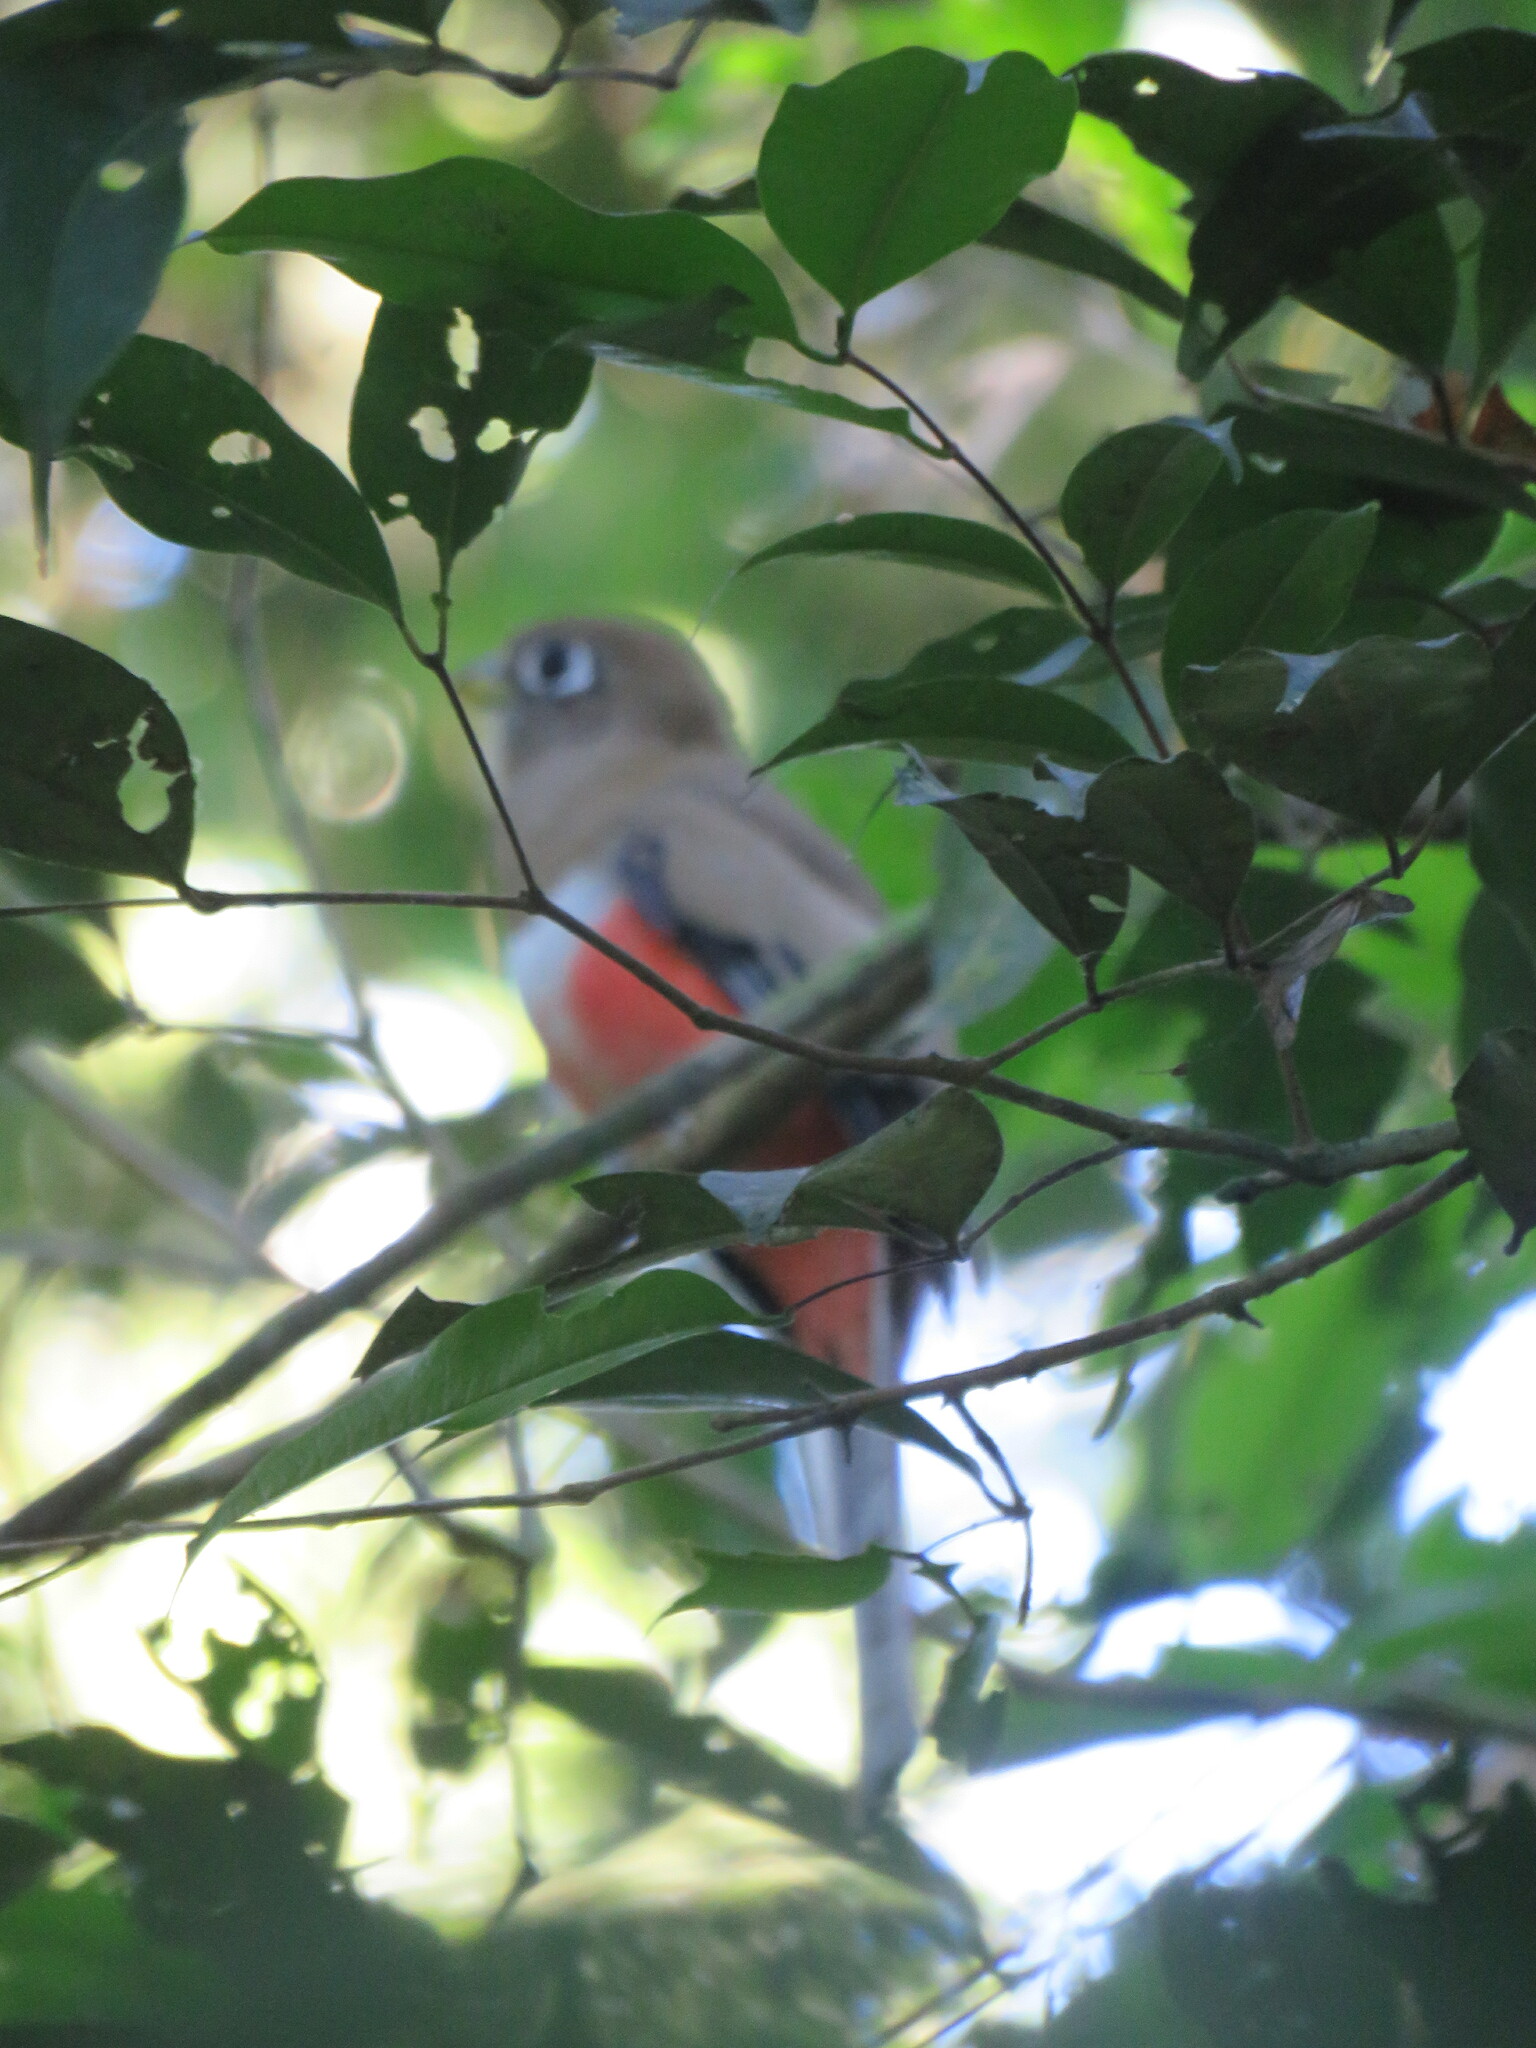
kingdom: Animalia
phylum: Chordata
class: Aves
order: Trogoniformes
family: Trogonidae
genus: Trogon
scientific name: Trogon collaris
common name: Collared trogon
